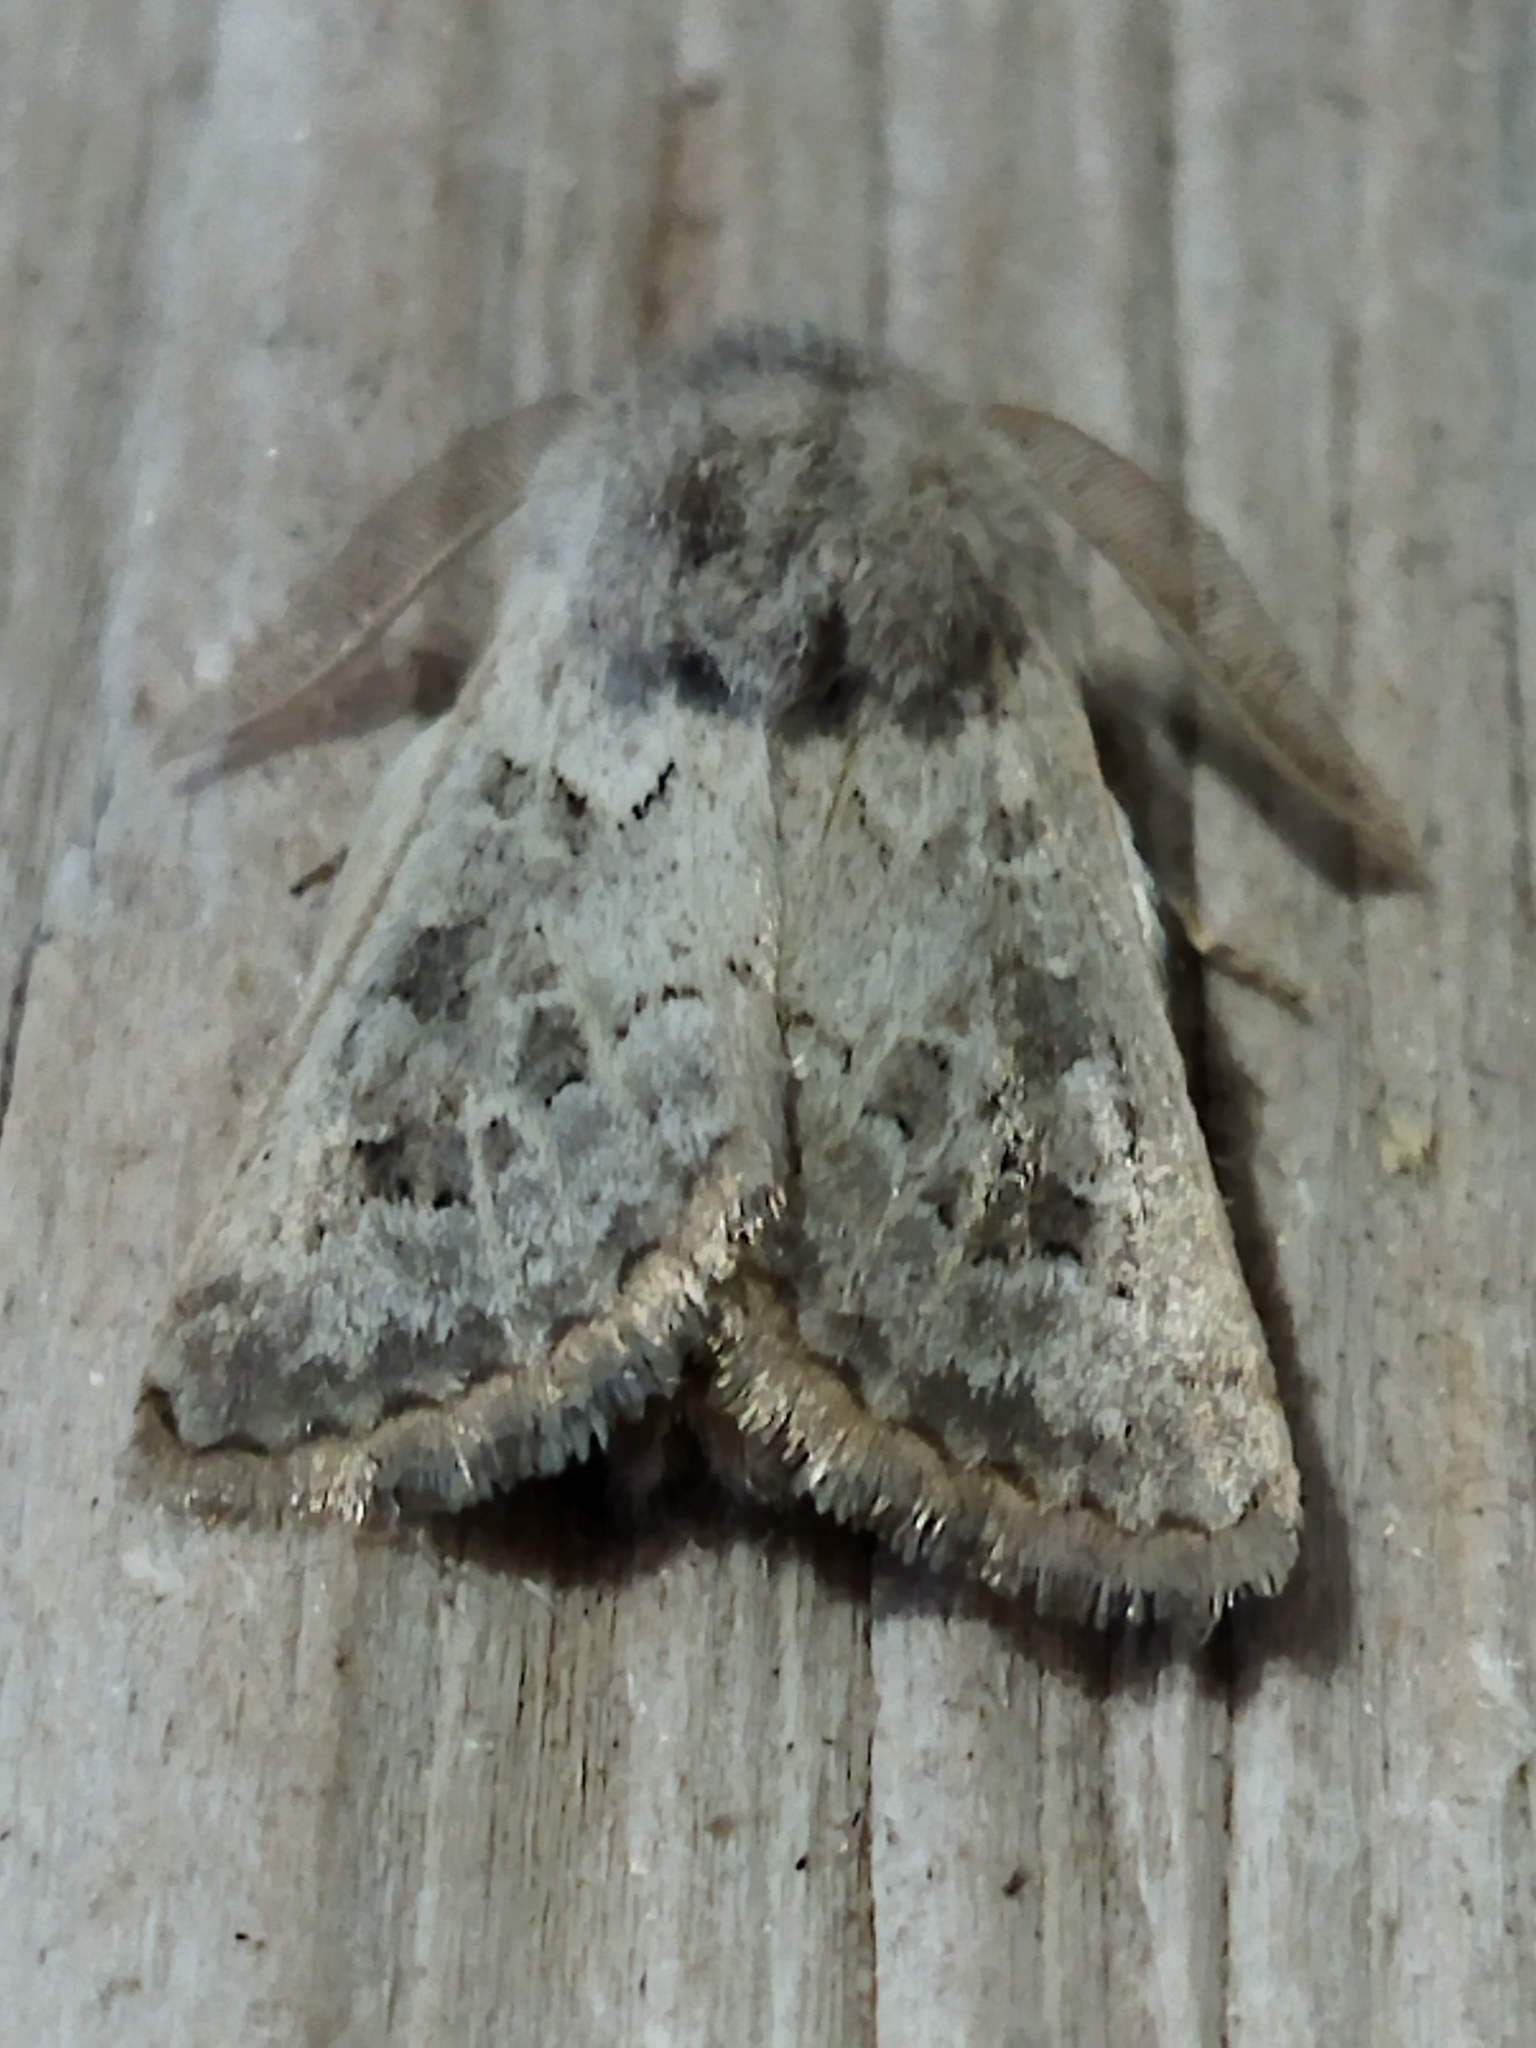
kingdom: Animalia
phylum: Arthropoda
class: Insecta
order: Lepidoptera
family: Noctuidae
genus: Episema
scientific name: Episema lederi
